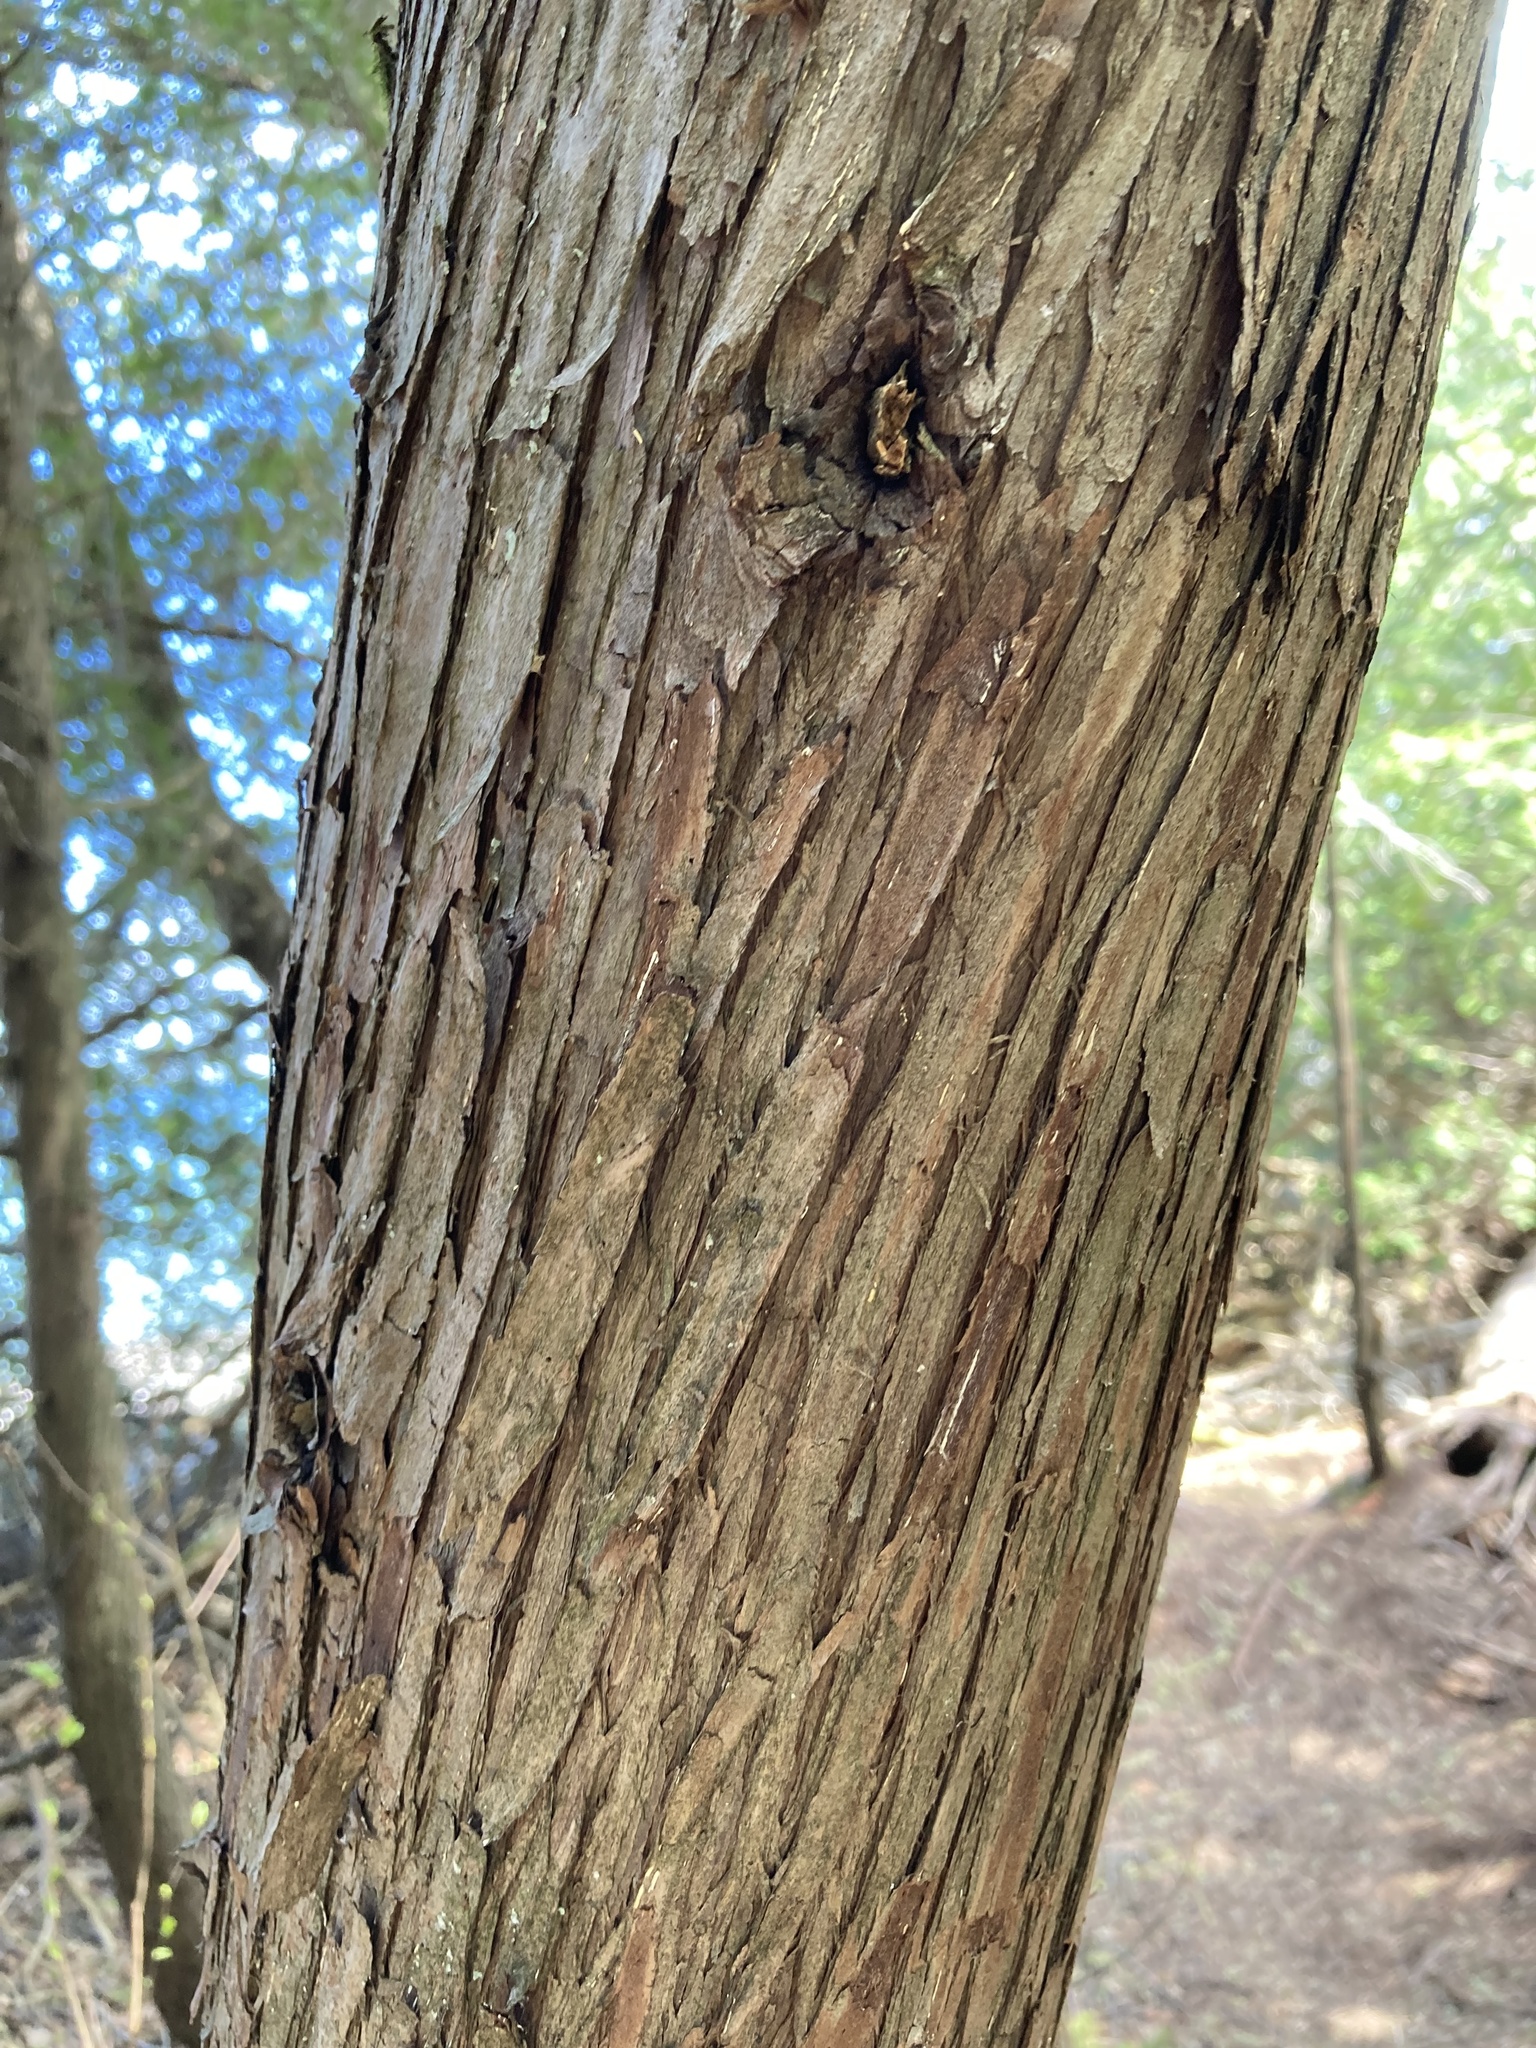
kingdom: Plantae
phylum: Tracheophyta
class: Pinopsida
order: Pinales
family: Cupressaceae
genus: Thuja
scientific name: Thuja occidentalis
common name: Northern white-cedar
